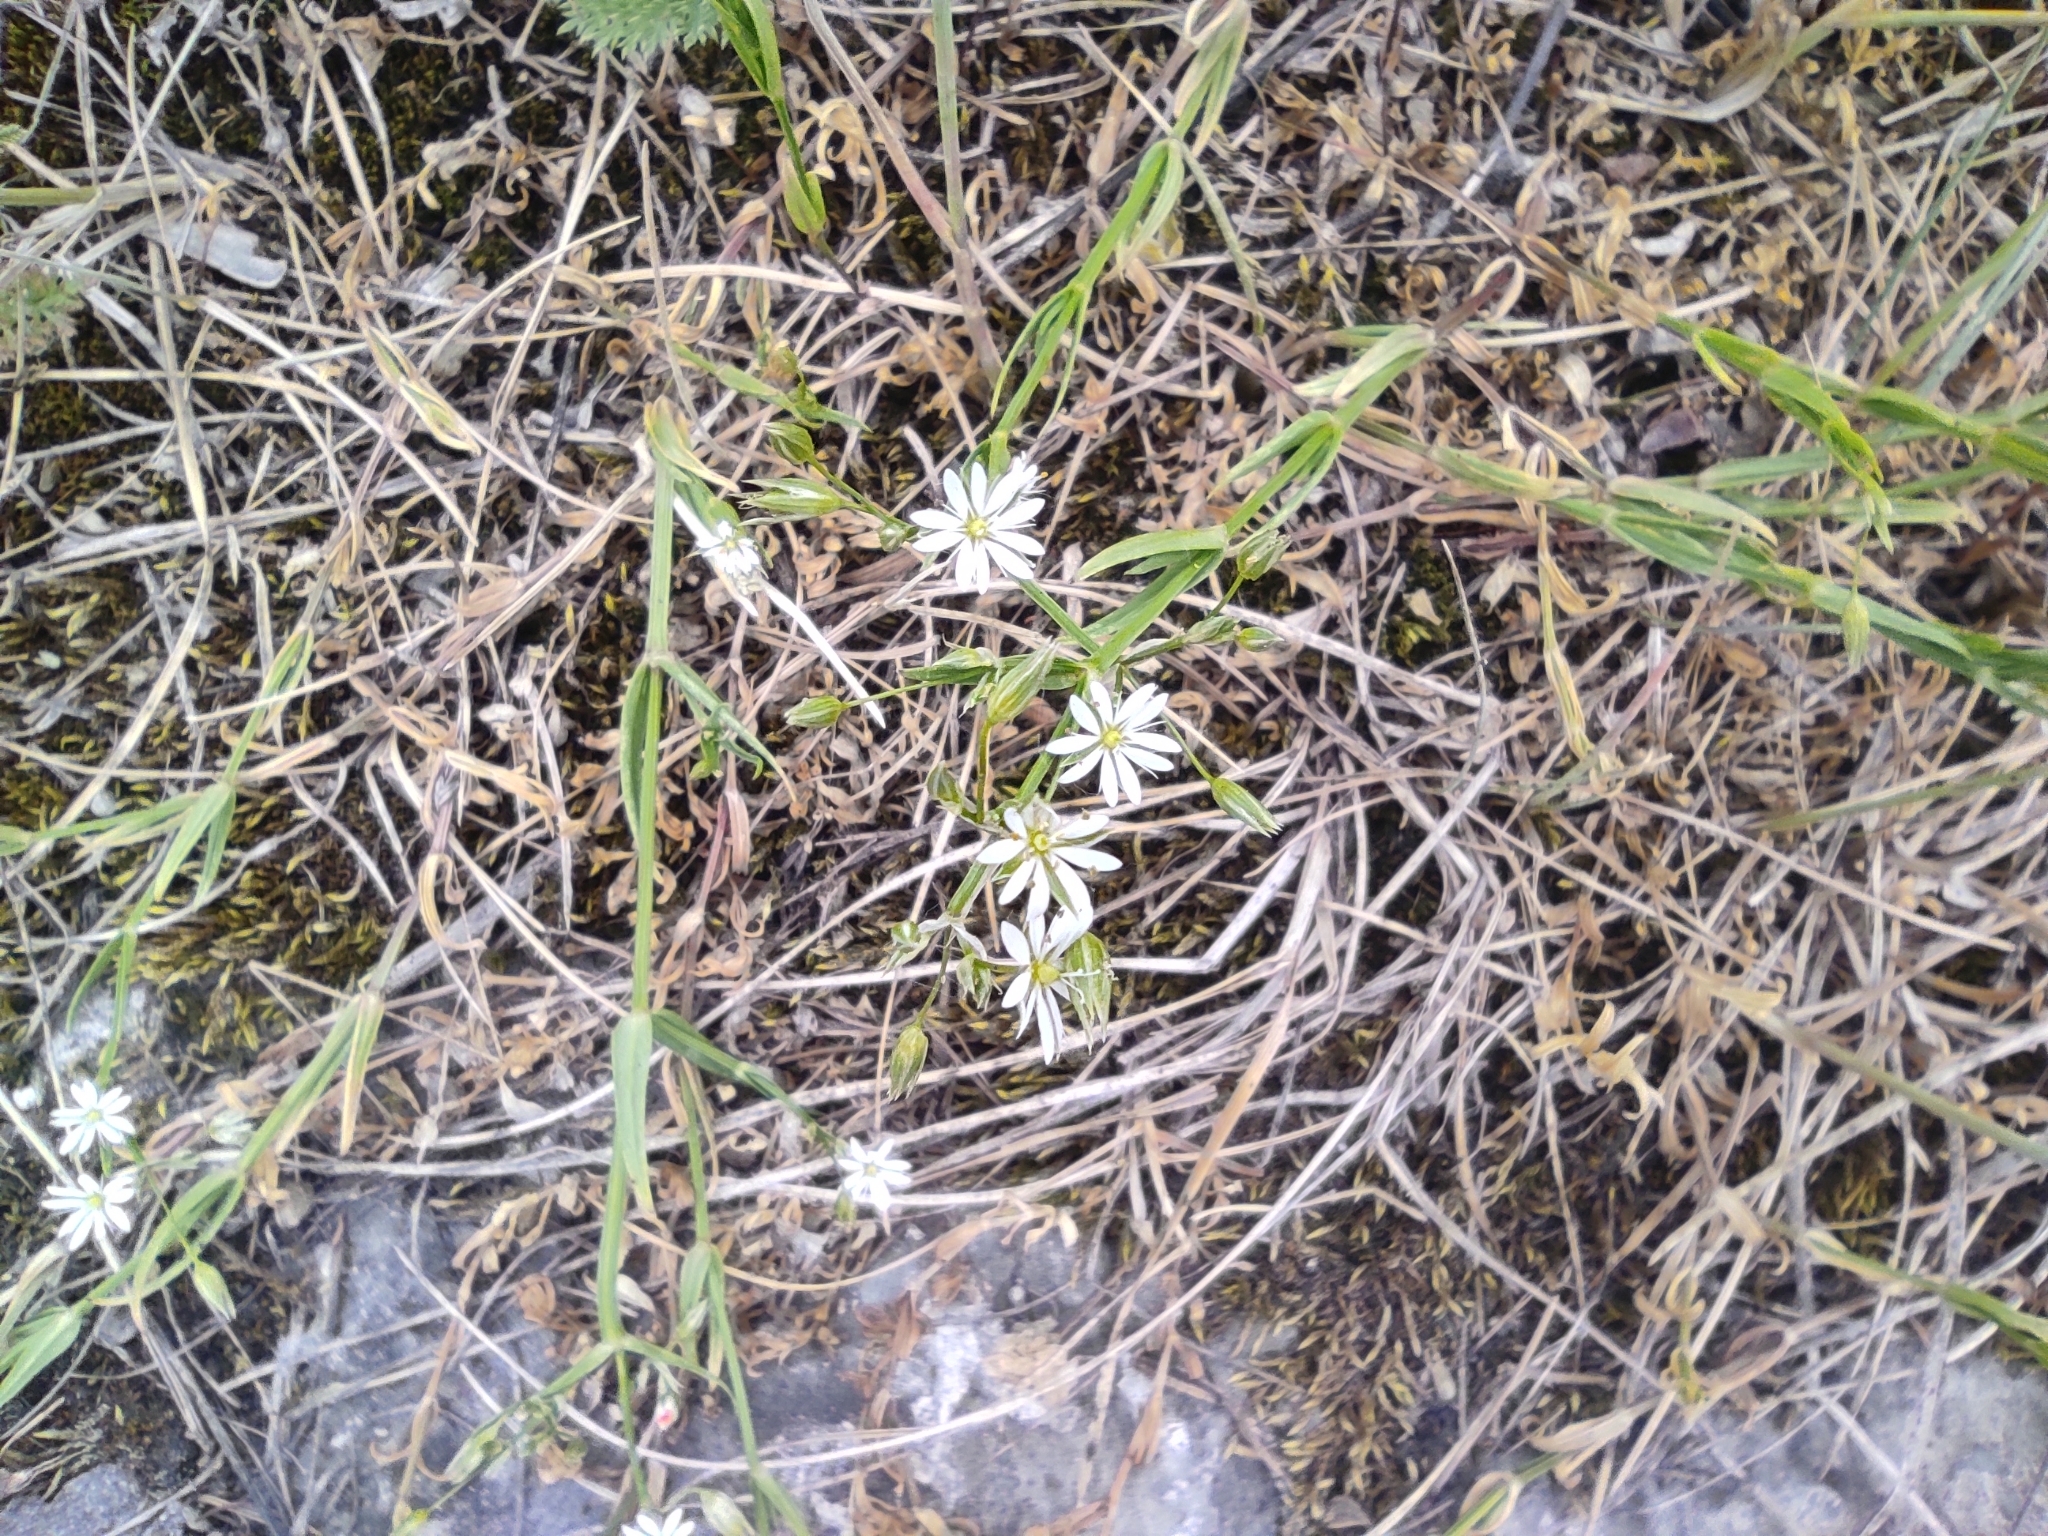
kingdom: Plantae
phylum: Tracheophyta
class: Magnoliopsida
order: Caryophyllales
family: Caryophyllaceae
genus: Stellaria
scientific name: Stellaria graminea
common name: Grass-like starwort
